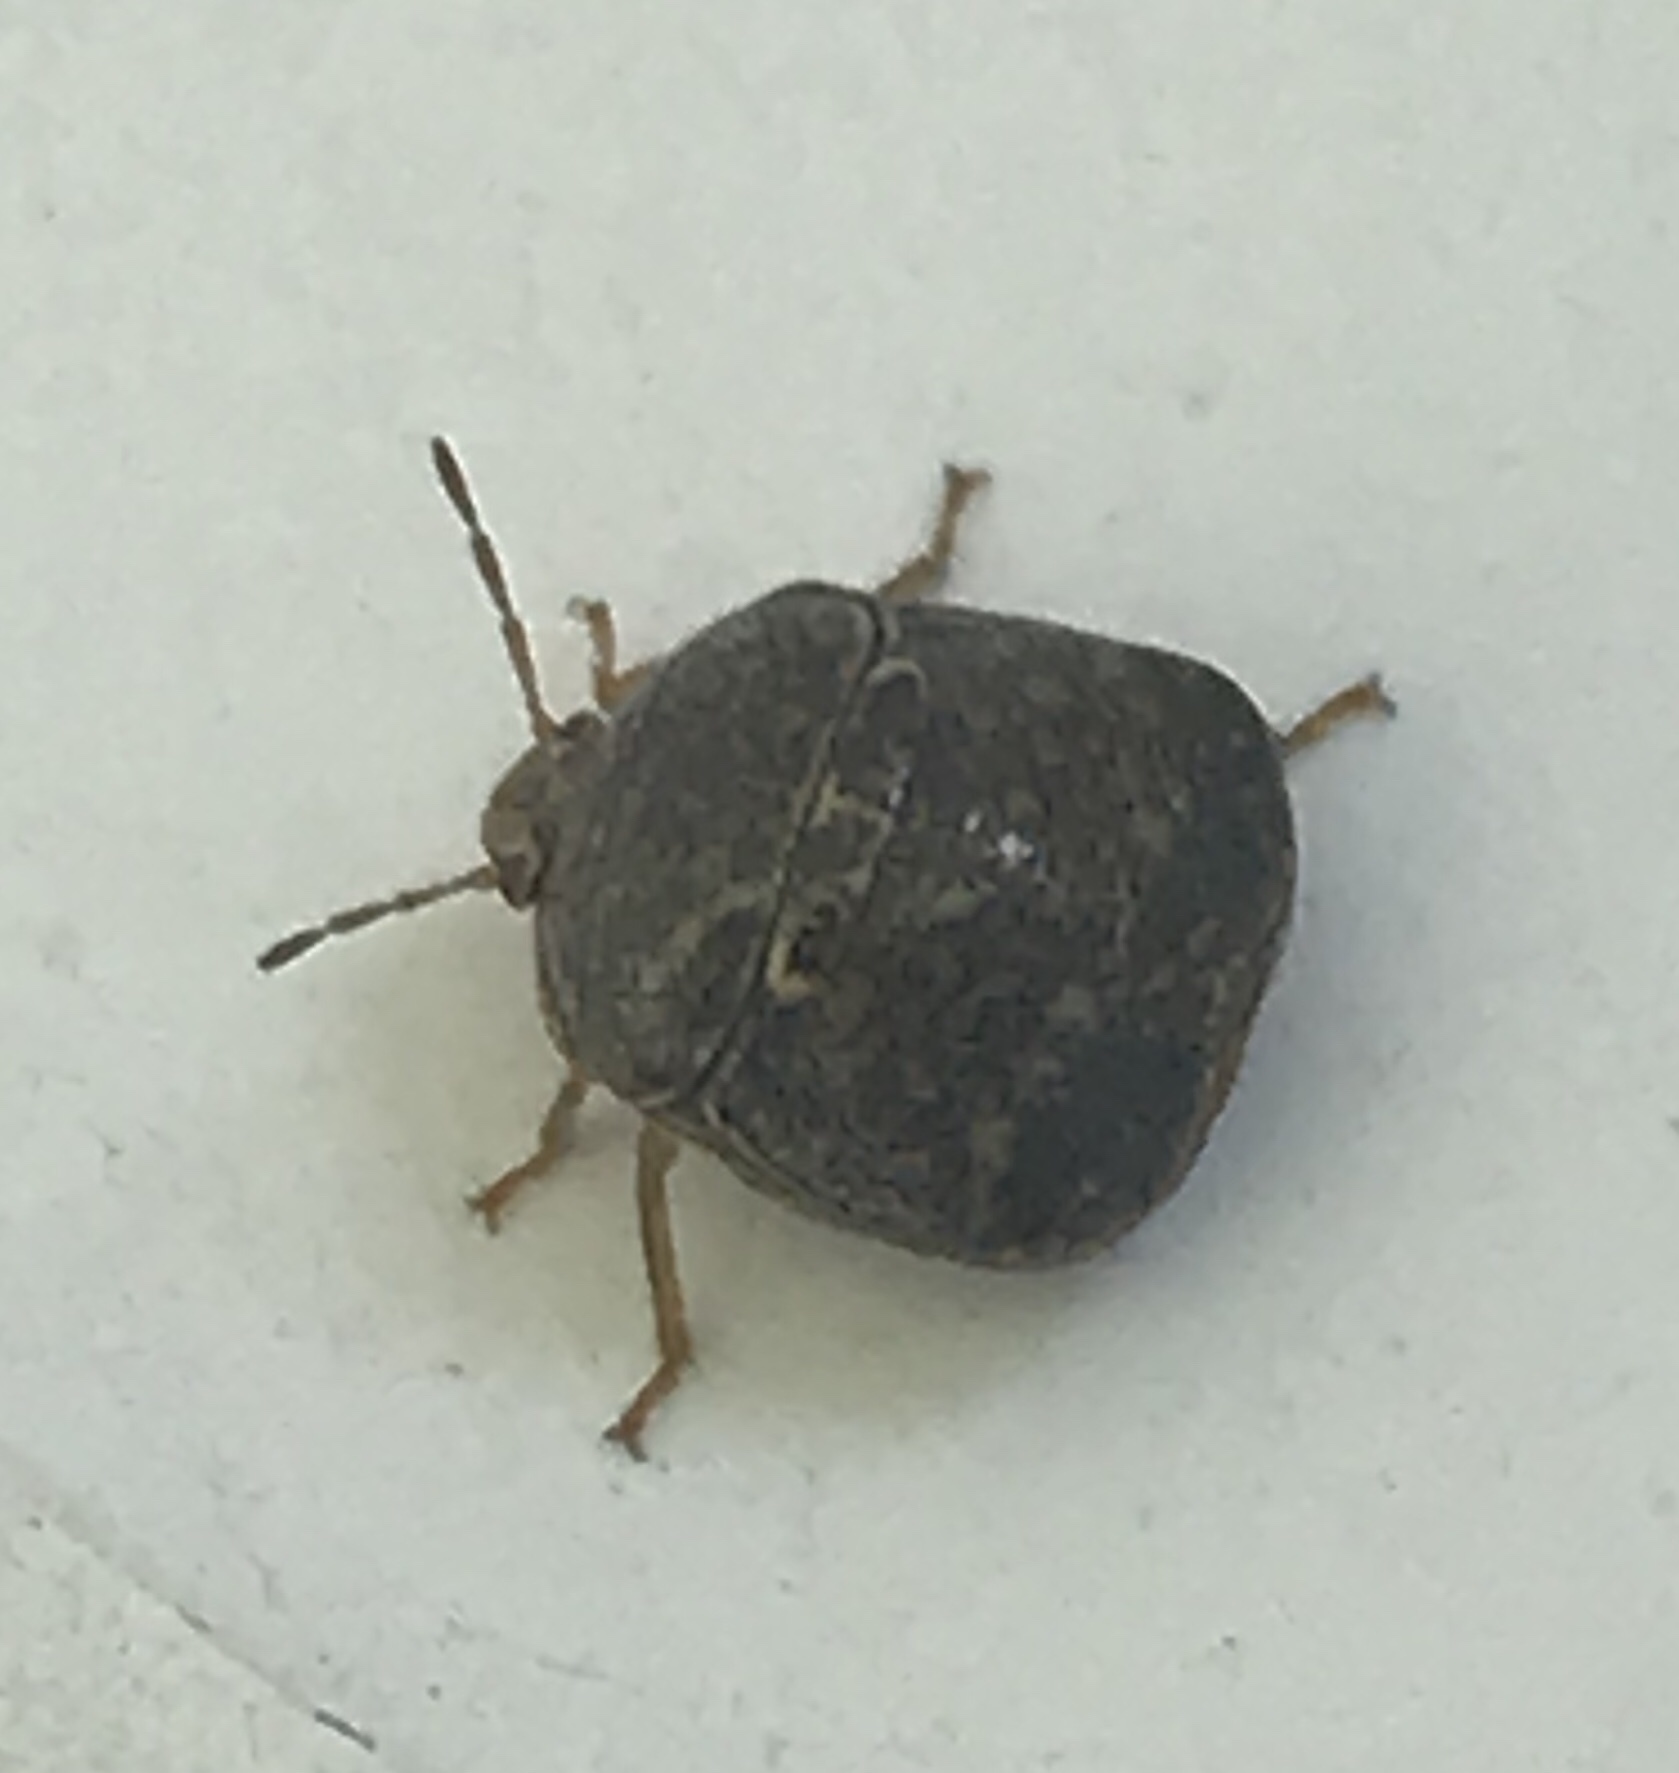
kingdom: Animalia
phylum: Arthropoda
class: Insecta
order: Hemiptera
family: Plataspidae
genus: Megacopta
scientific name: Megacopta cribraria
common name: Bean plataspid
